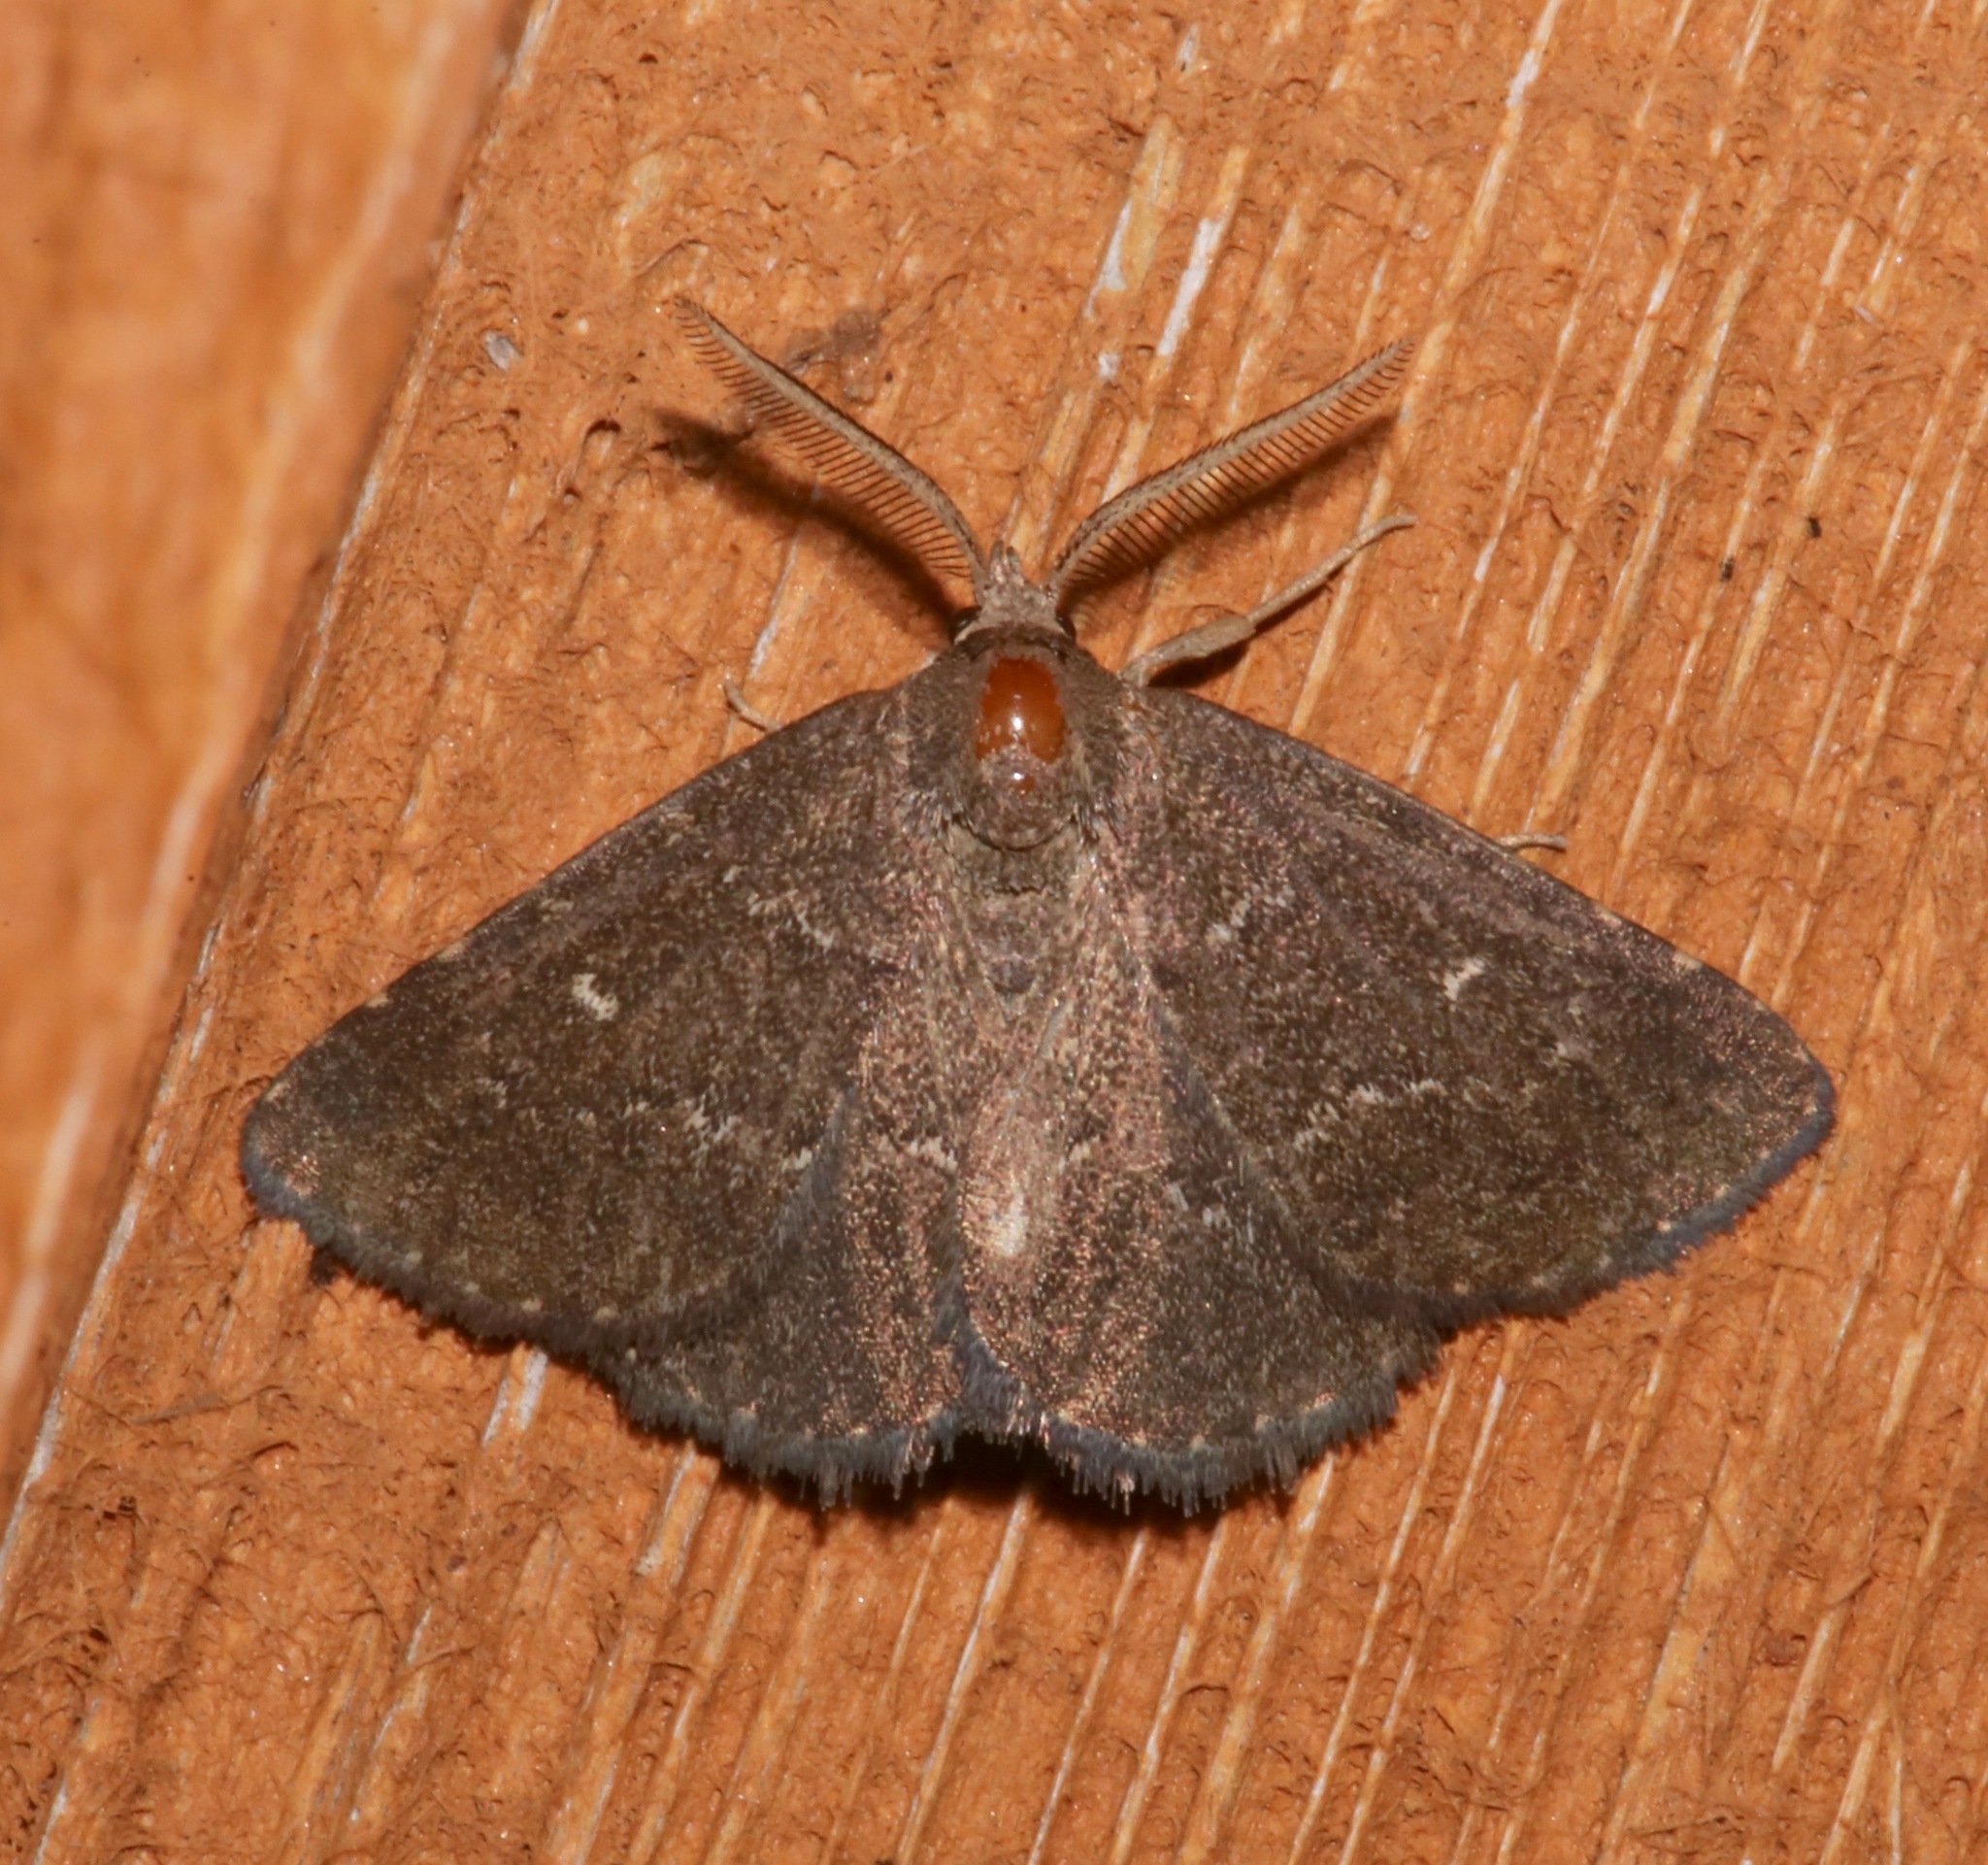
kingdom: Animalia
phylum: Arthropoda
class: Insecta
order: Lepidoptera
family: Erebidae
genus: Prosoparia
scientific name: Prosoparia floridana
